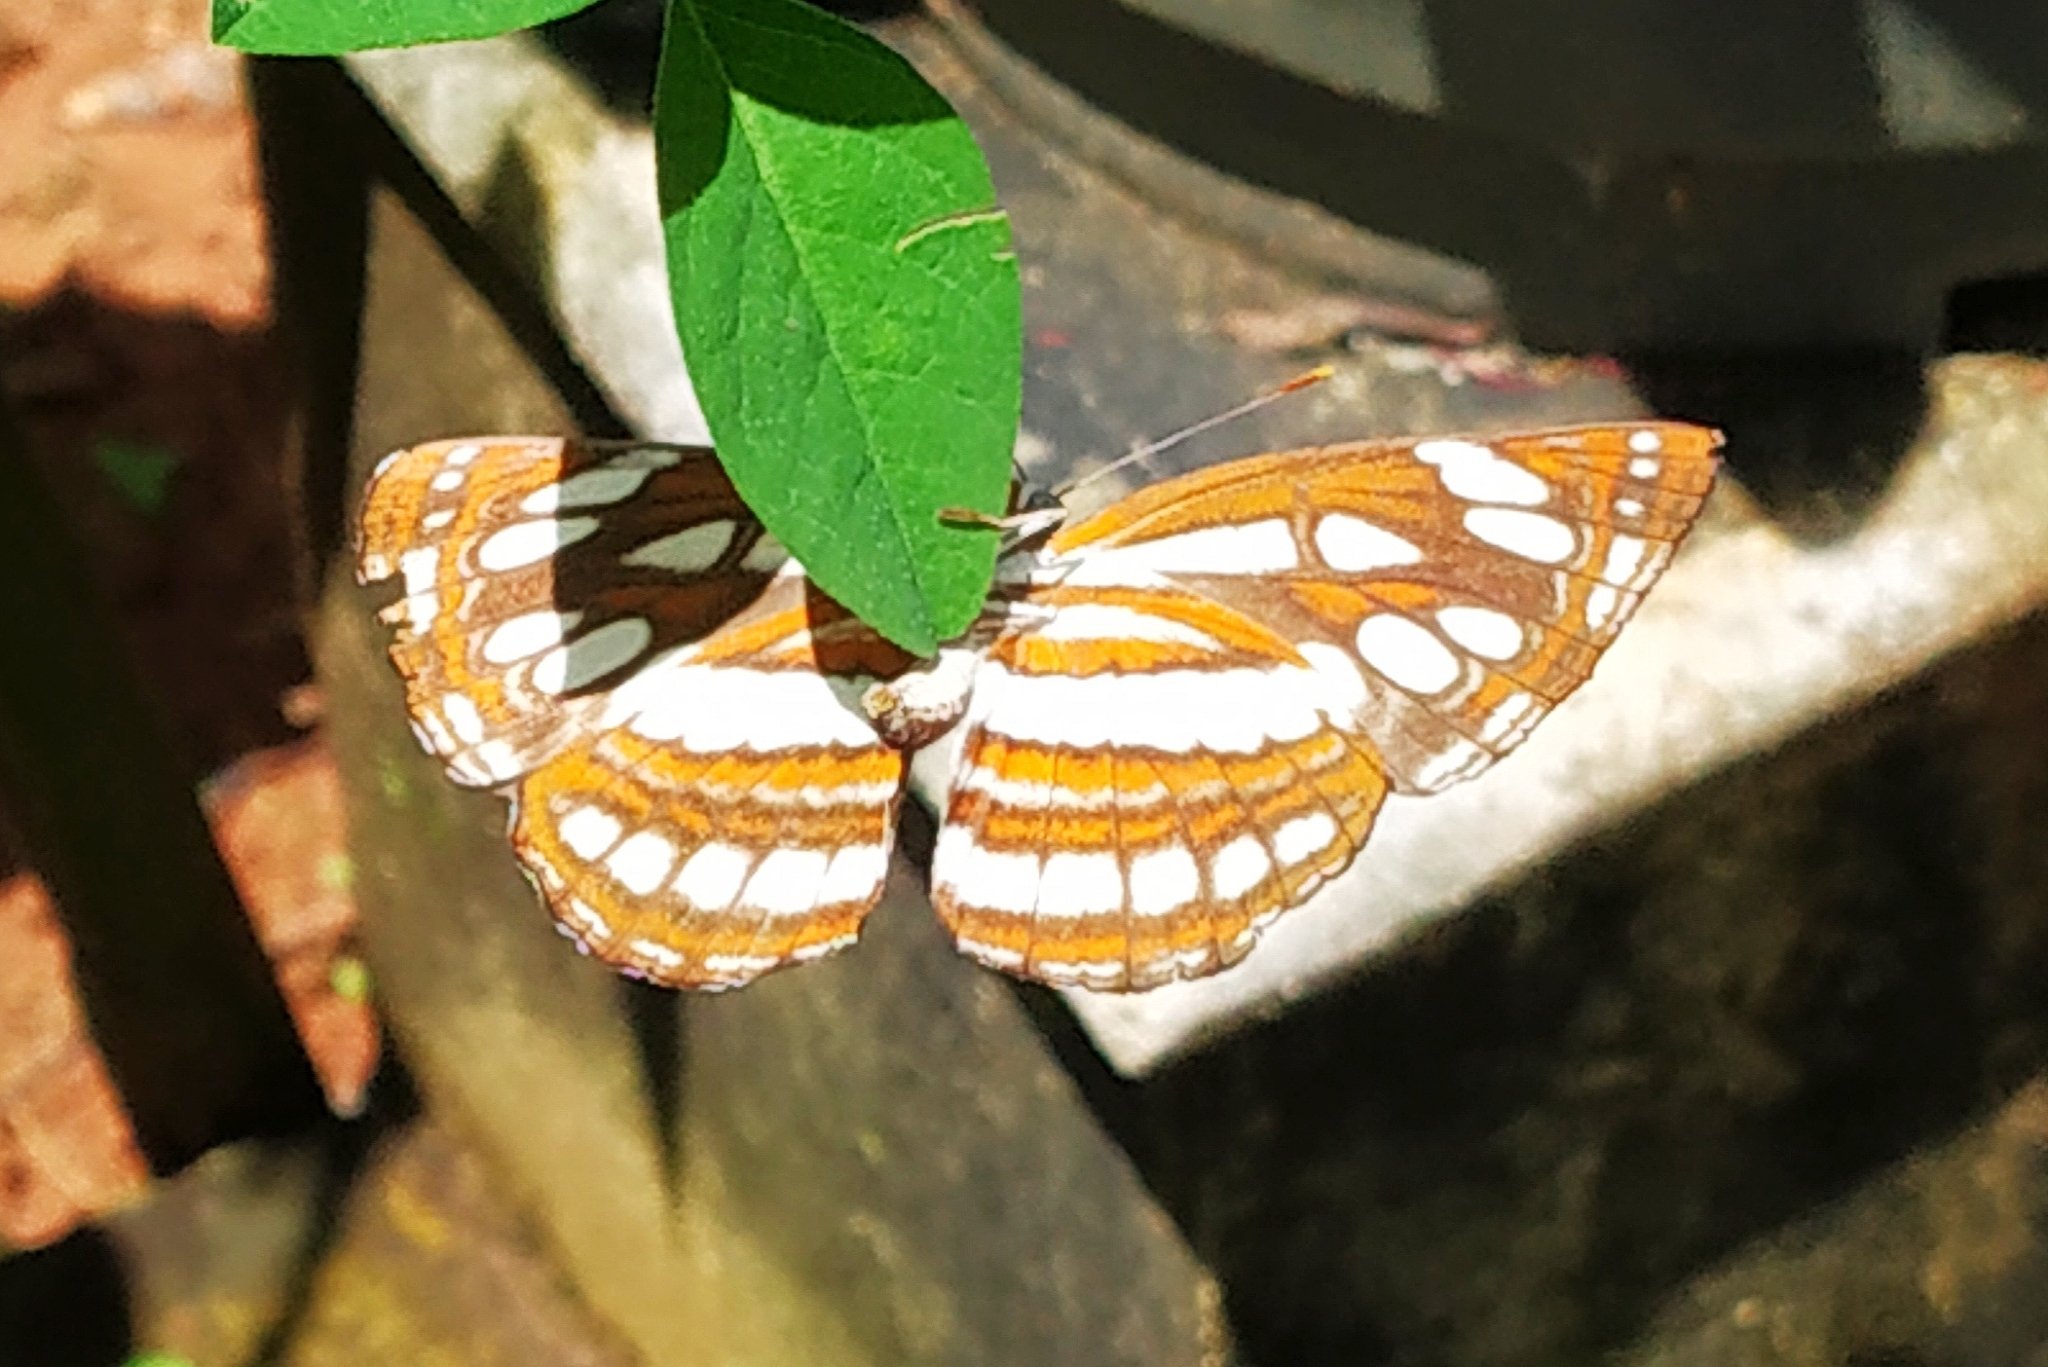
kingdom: Animalia
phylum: Arthropoda
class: Insecta
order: Lepidoptera
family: Nymphalidae
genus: Neptis
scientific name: Neptis hylas
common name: Common sailer
